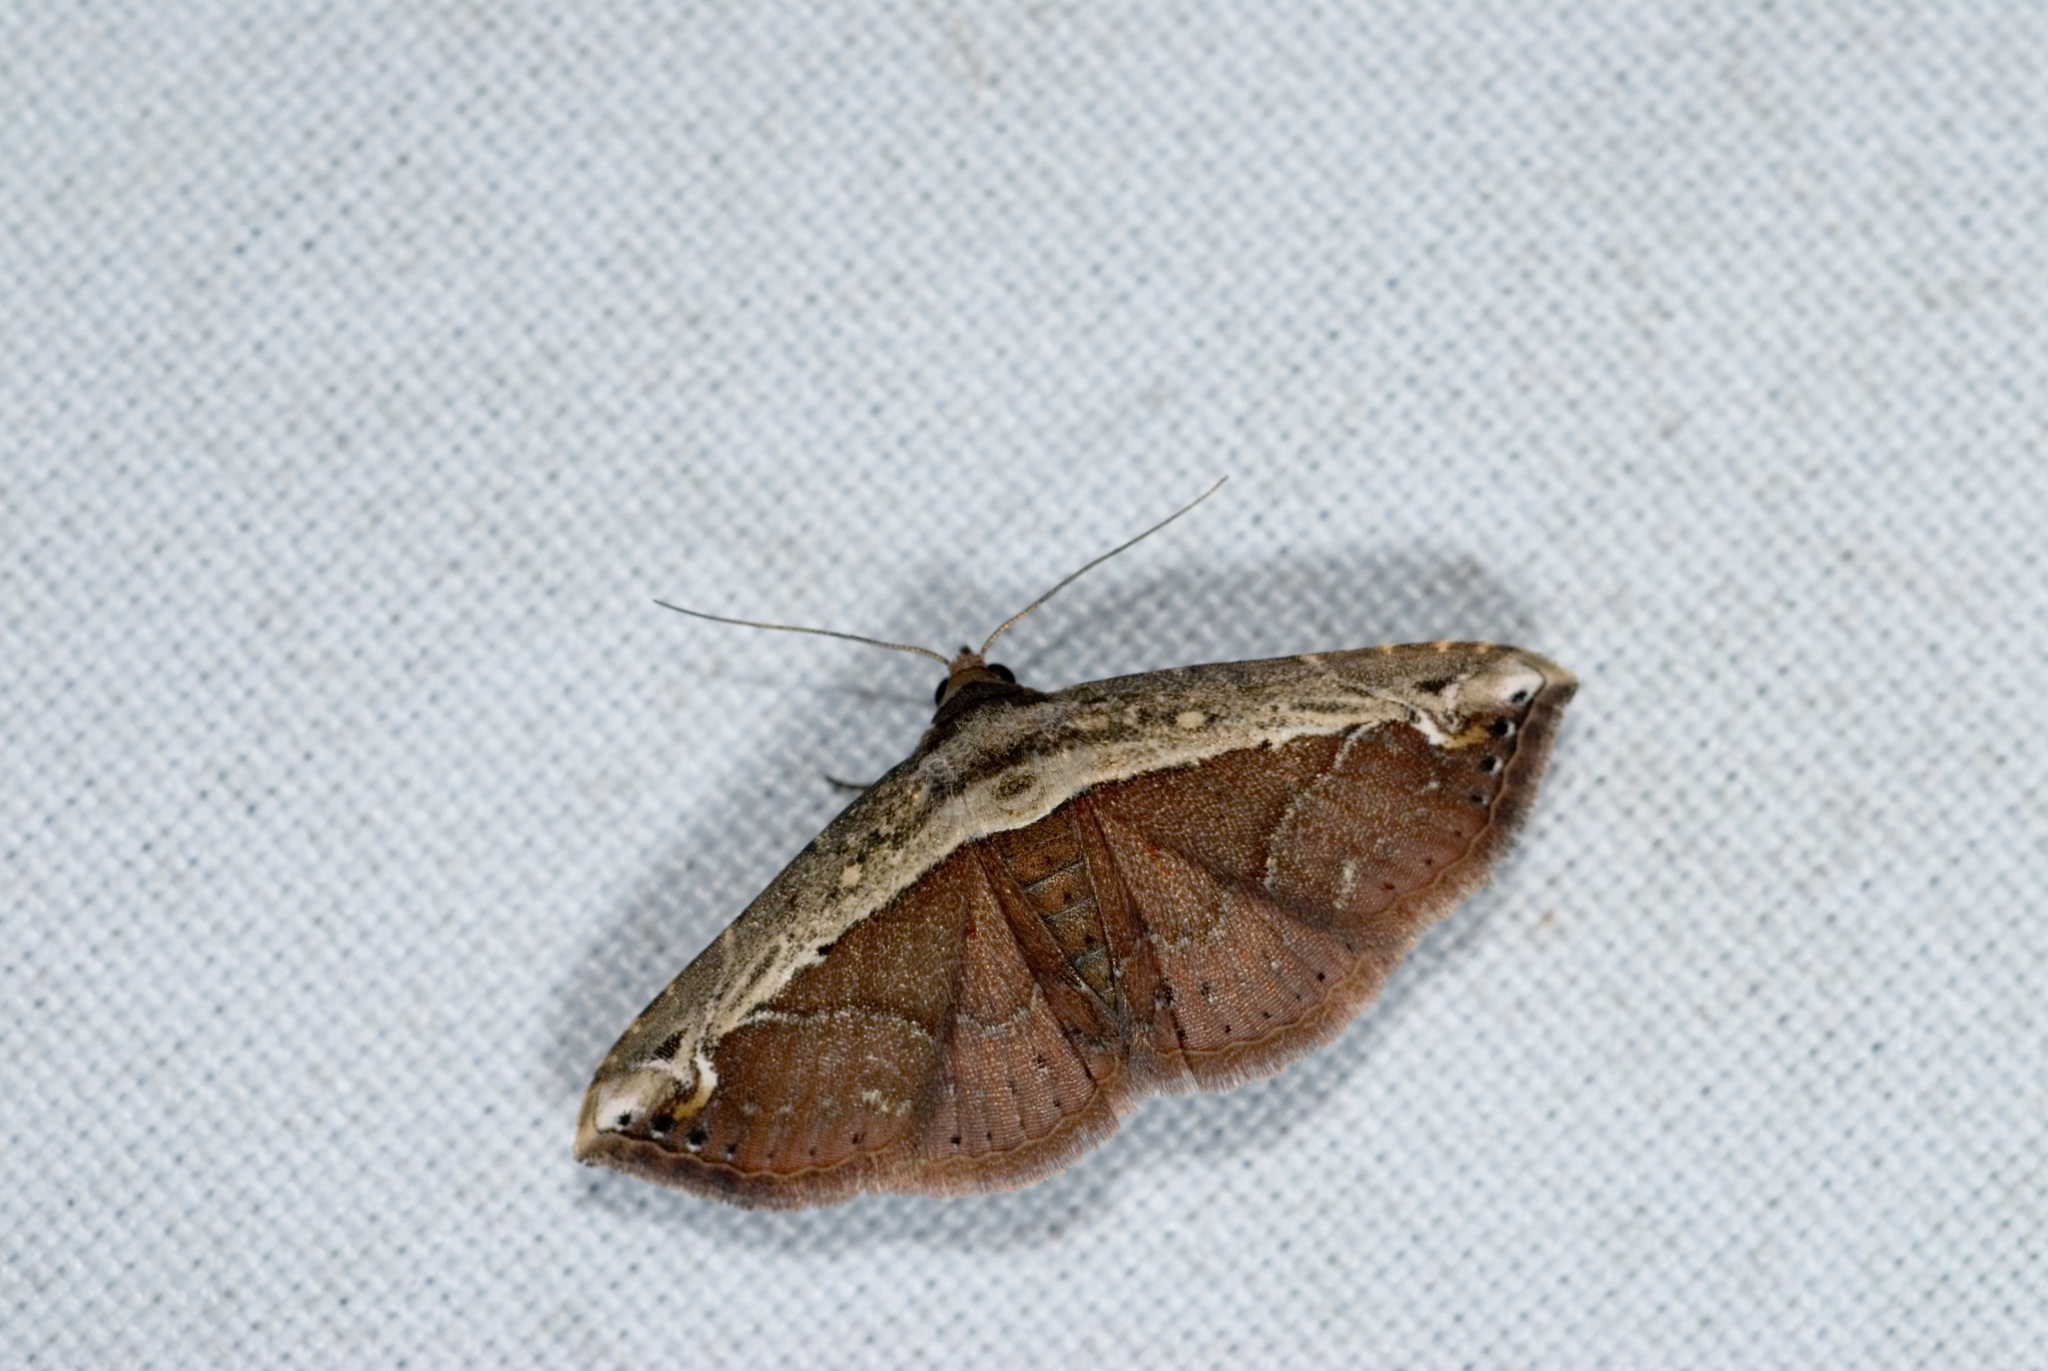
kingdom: Animalia
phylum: Arthropoda
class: Insecta
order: Lepidoptera
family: Erebidae
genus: Zurobata
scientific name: Zurobata vacillans
